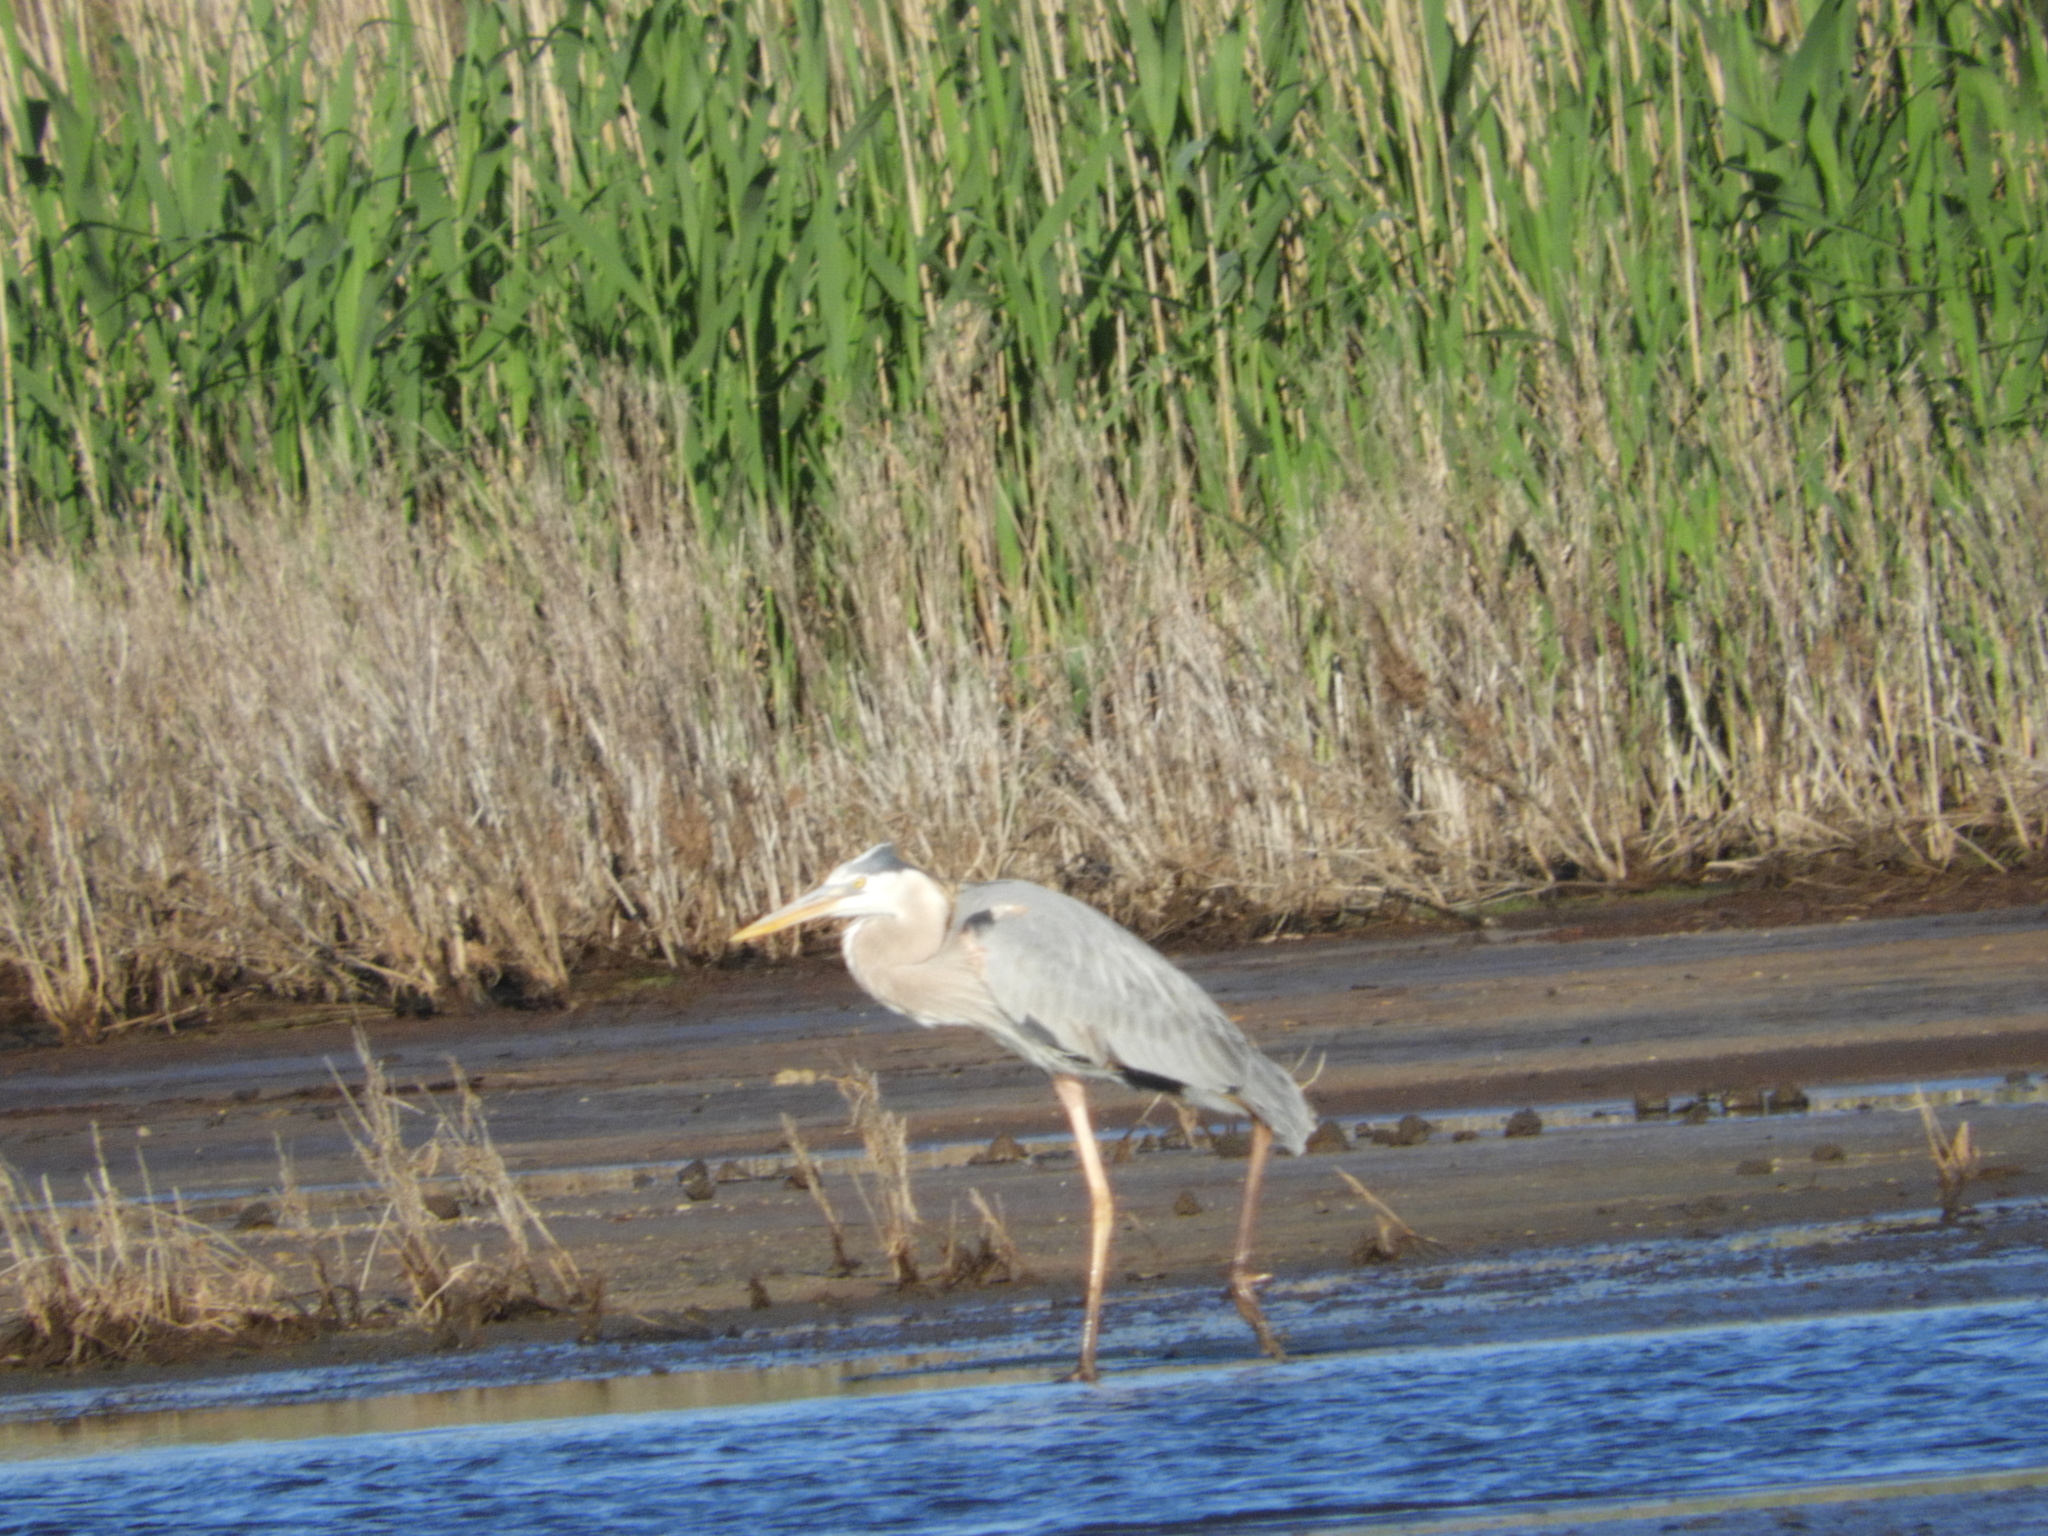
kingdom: Animalia
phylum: Chordata
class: Aves
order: Pelecaniformes
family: Ardeidae
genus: Ardea
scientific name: Ardea herodias
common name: Great blue heron
